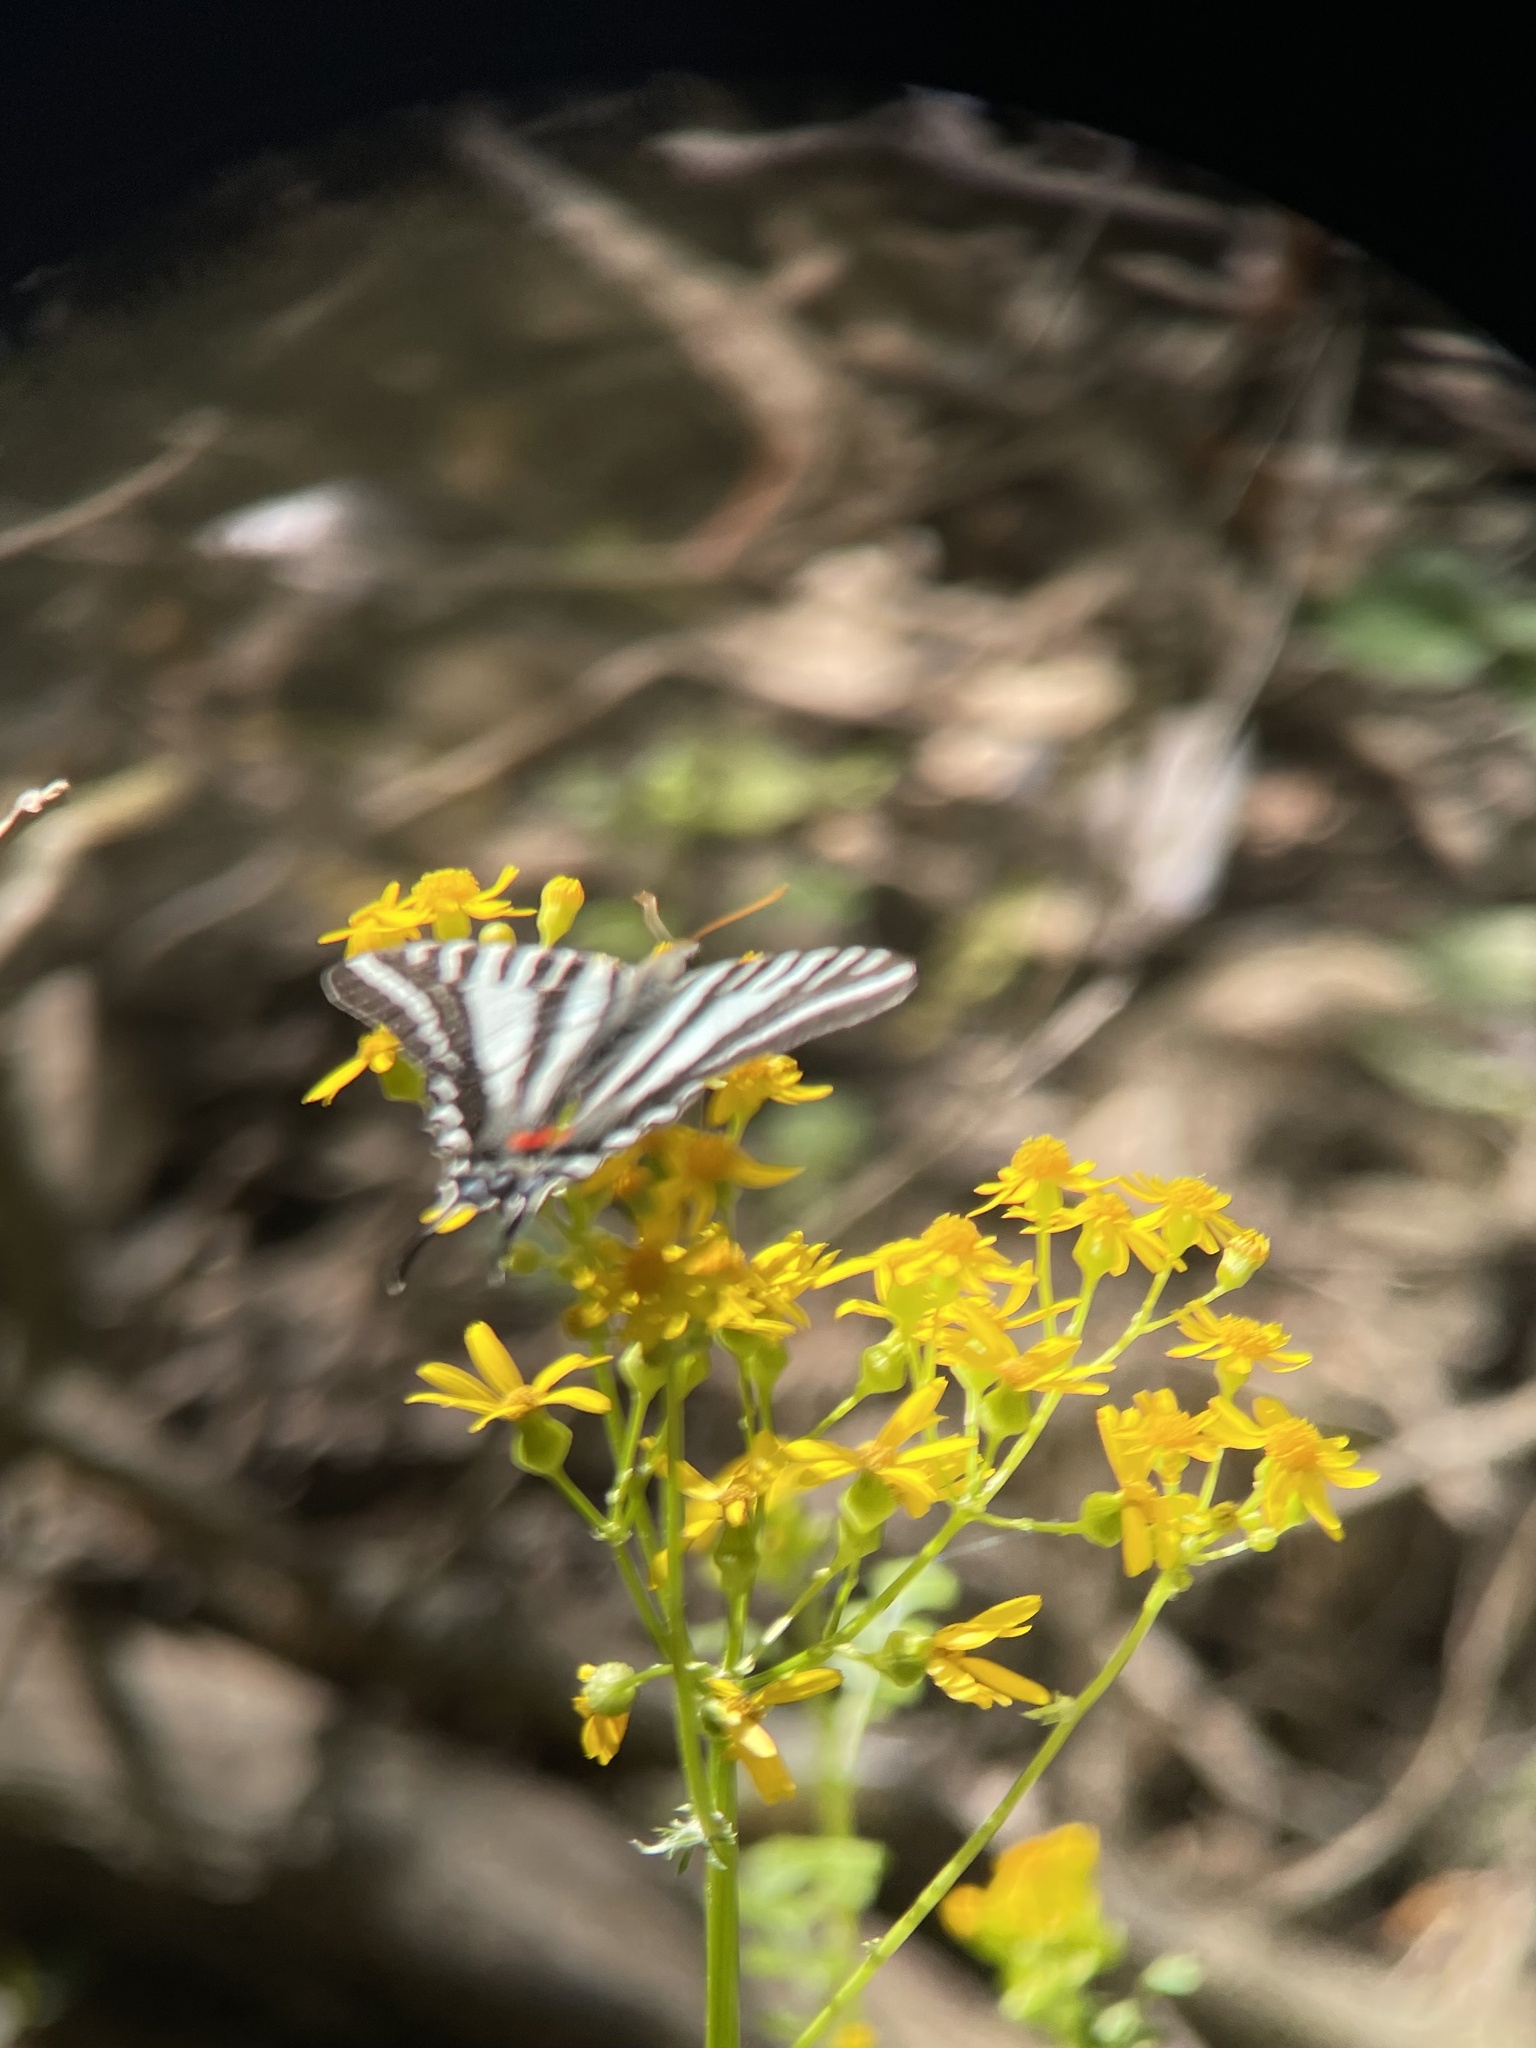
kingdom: Animalia
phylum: Arthropoda
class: Insecta
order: Lepidoptera
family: Papilionidae
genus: Protographium
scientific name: Protographium marcellus
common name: Zebra swallowtail
